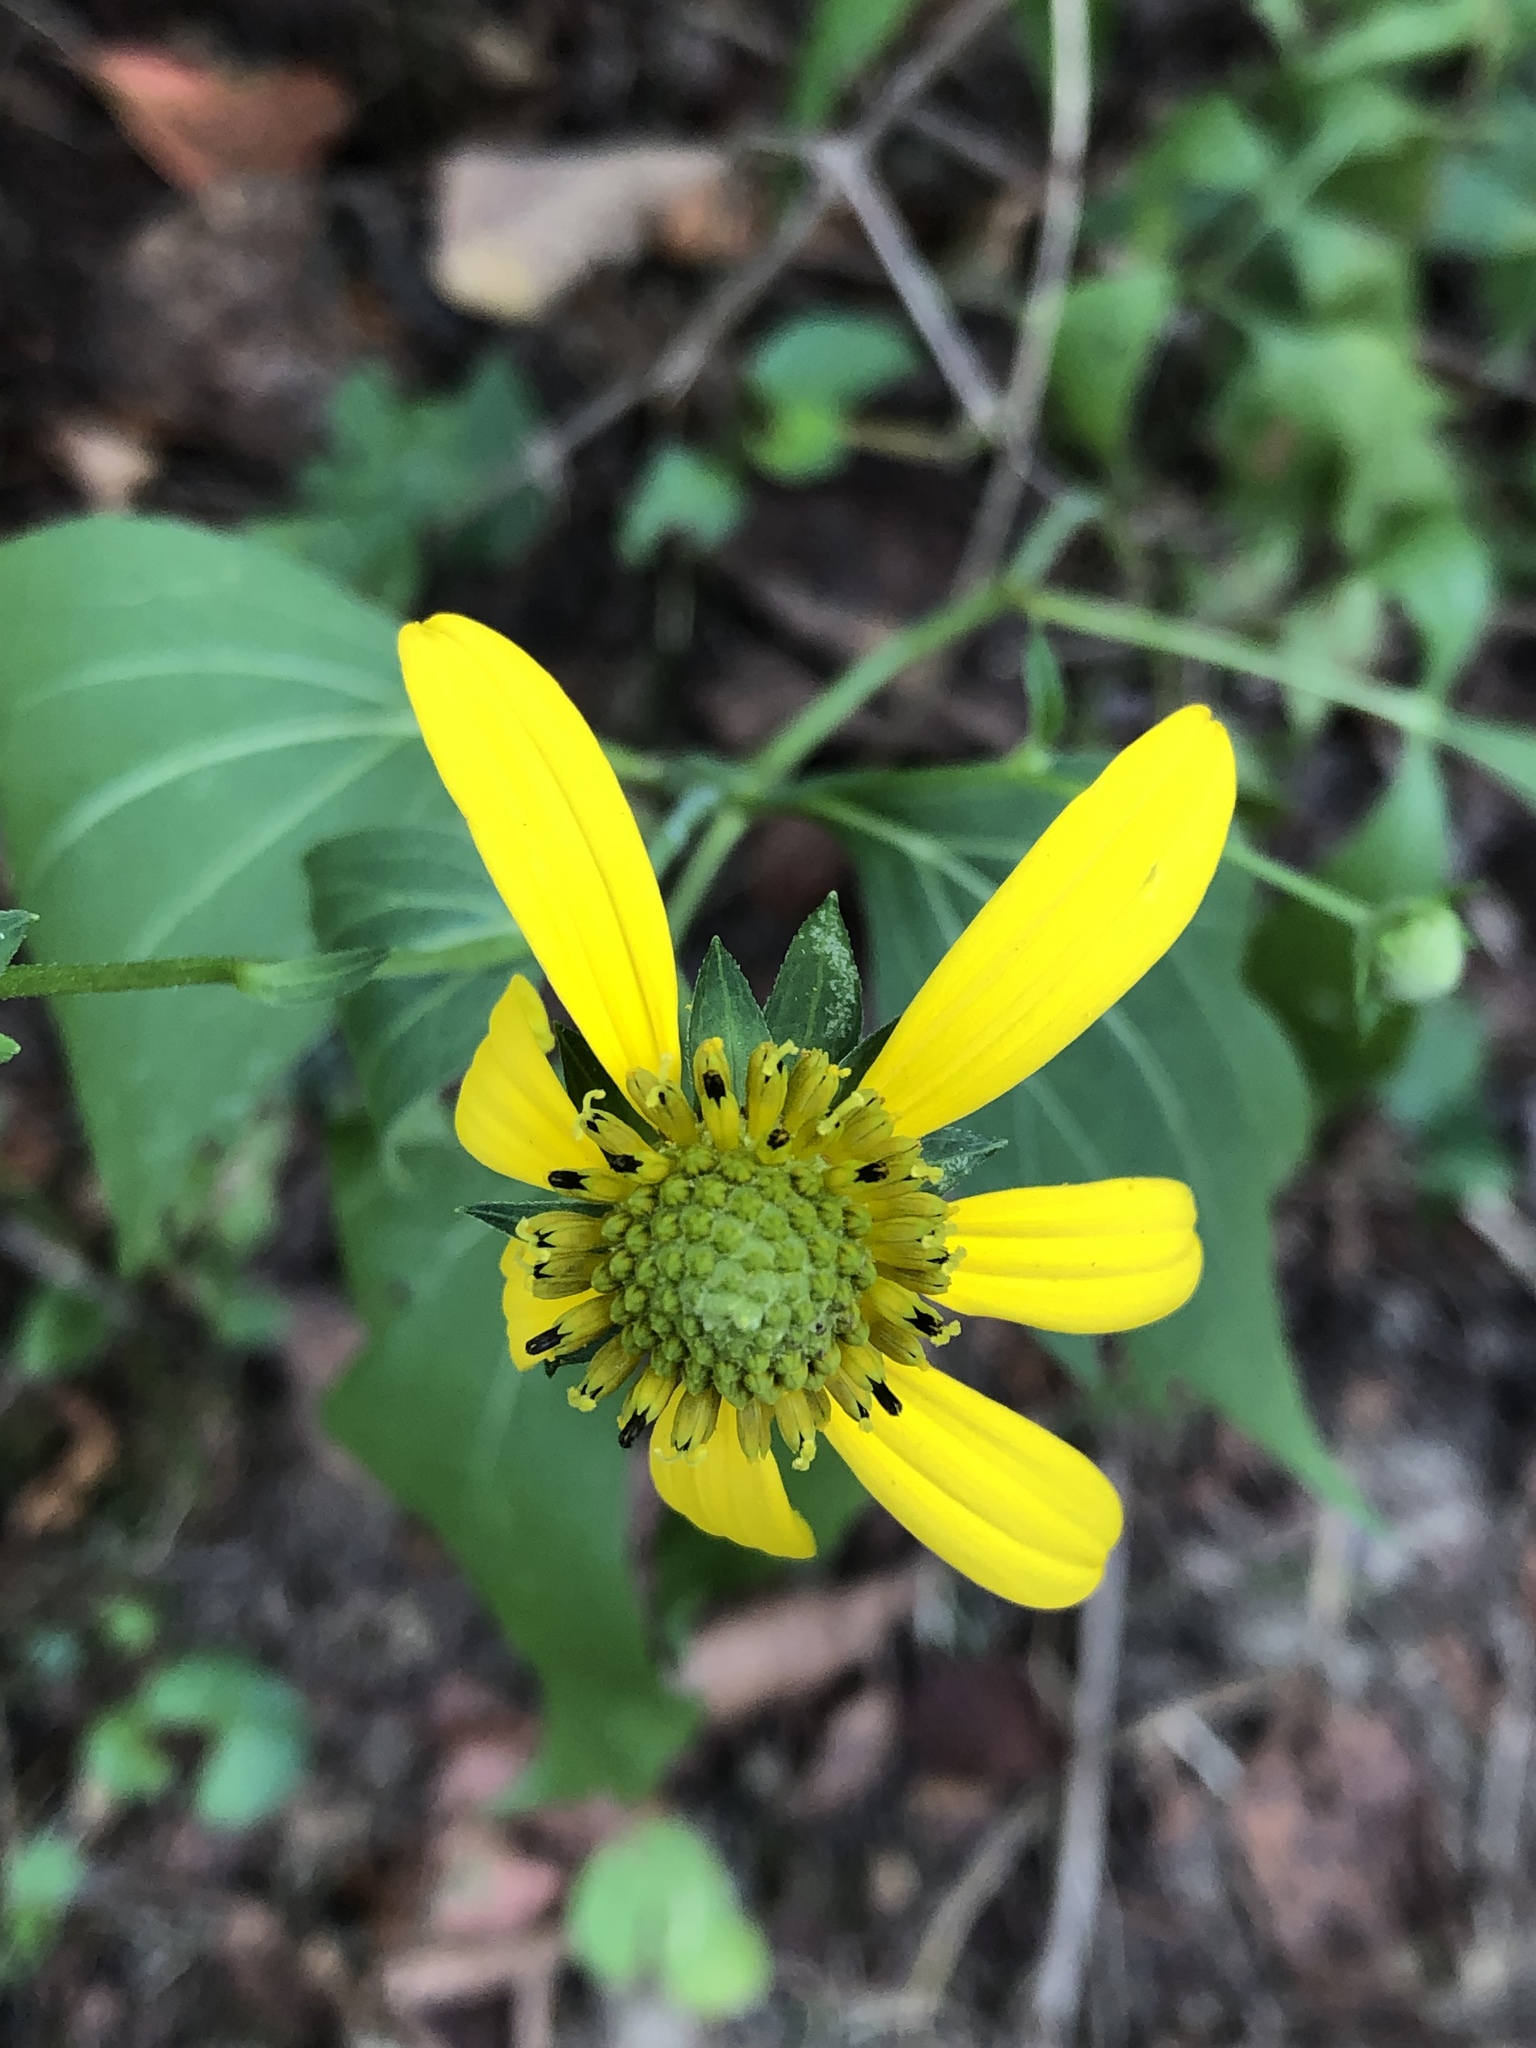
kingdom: Plantae
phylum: Tracheophyta
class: Magnoliopsida
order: Asterales
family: Asteraceae
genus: Rudbeckia
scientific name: Rudbeckia laciniata
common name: Coneflower
